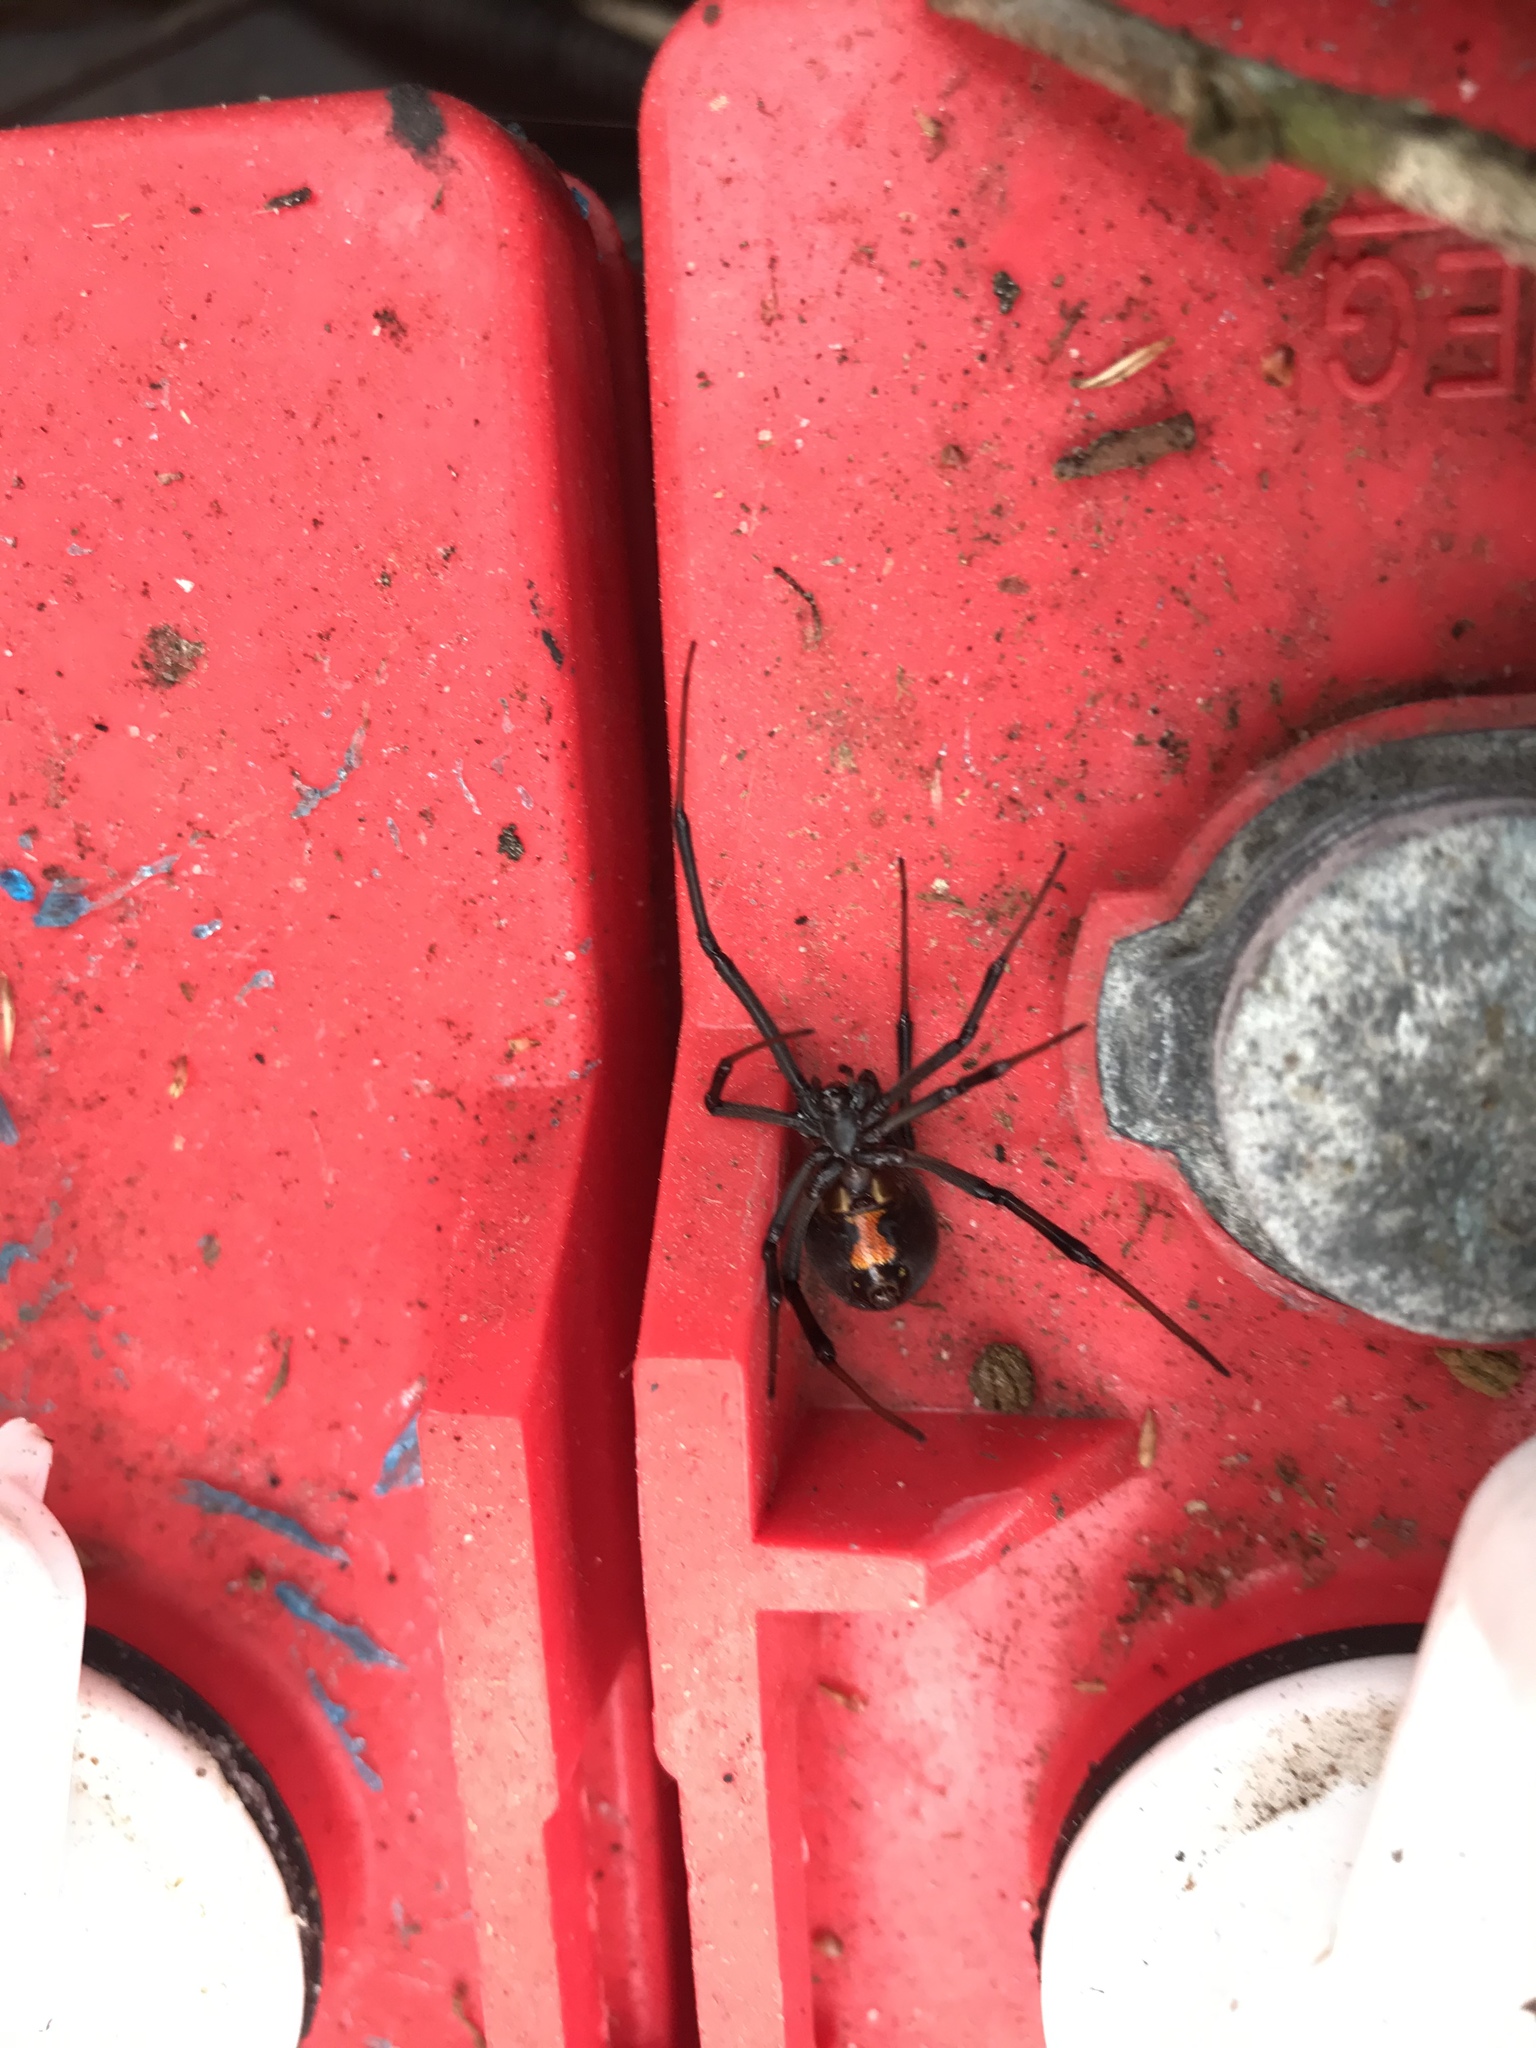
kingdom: Animalia
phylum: Arthropoda
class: Arachnida
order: Araneae
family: Theridiidae
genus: Latrodectus
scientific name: Latrodectus mactans
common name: Cobweb spiders
